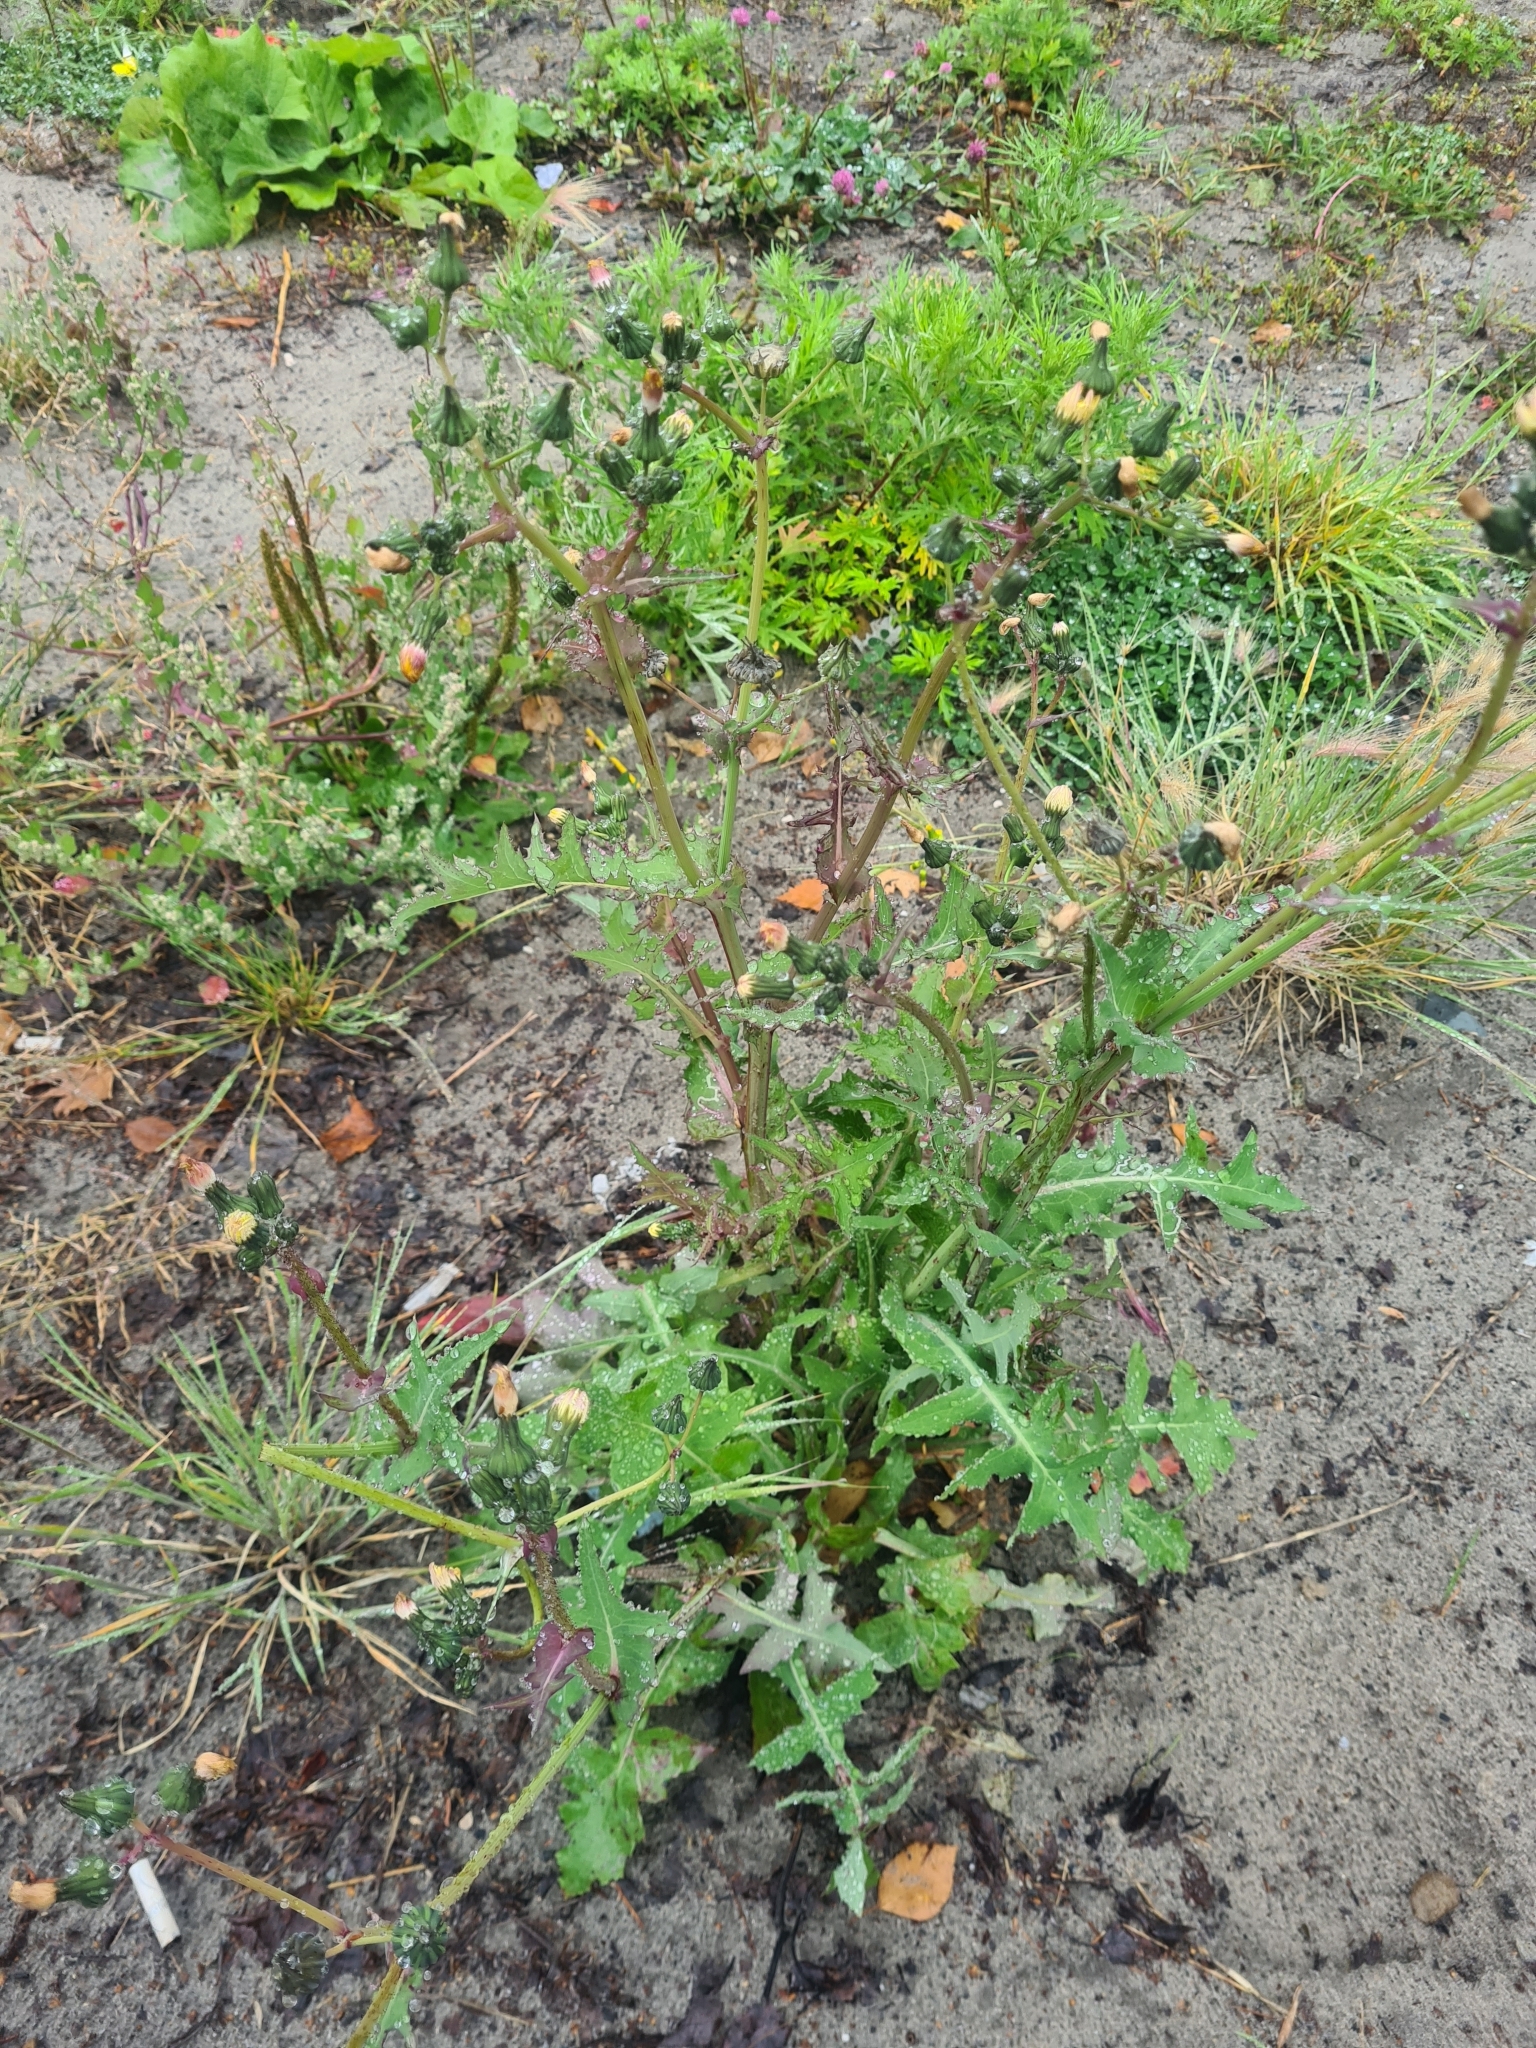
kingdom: Plantae
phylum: Tracheophyta
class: Magnoliopsida
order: Asterales
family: Asteraceae
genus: Sonchus
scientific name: Sonchus oleraceus
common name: Common sowthistle
